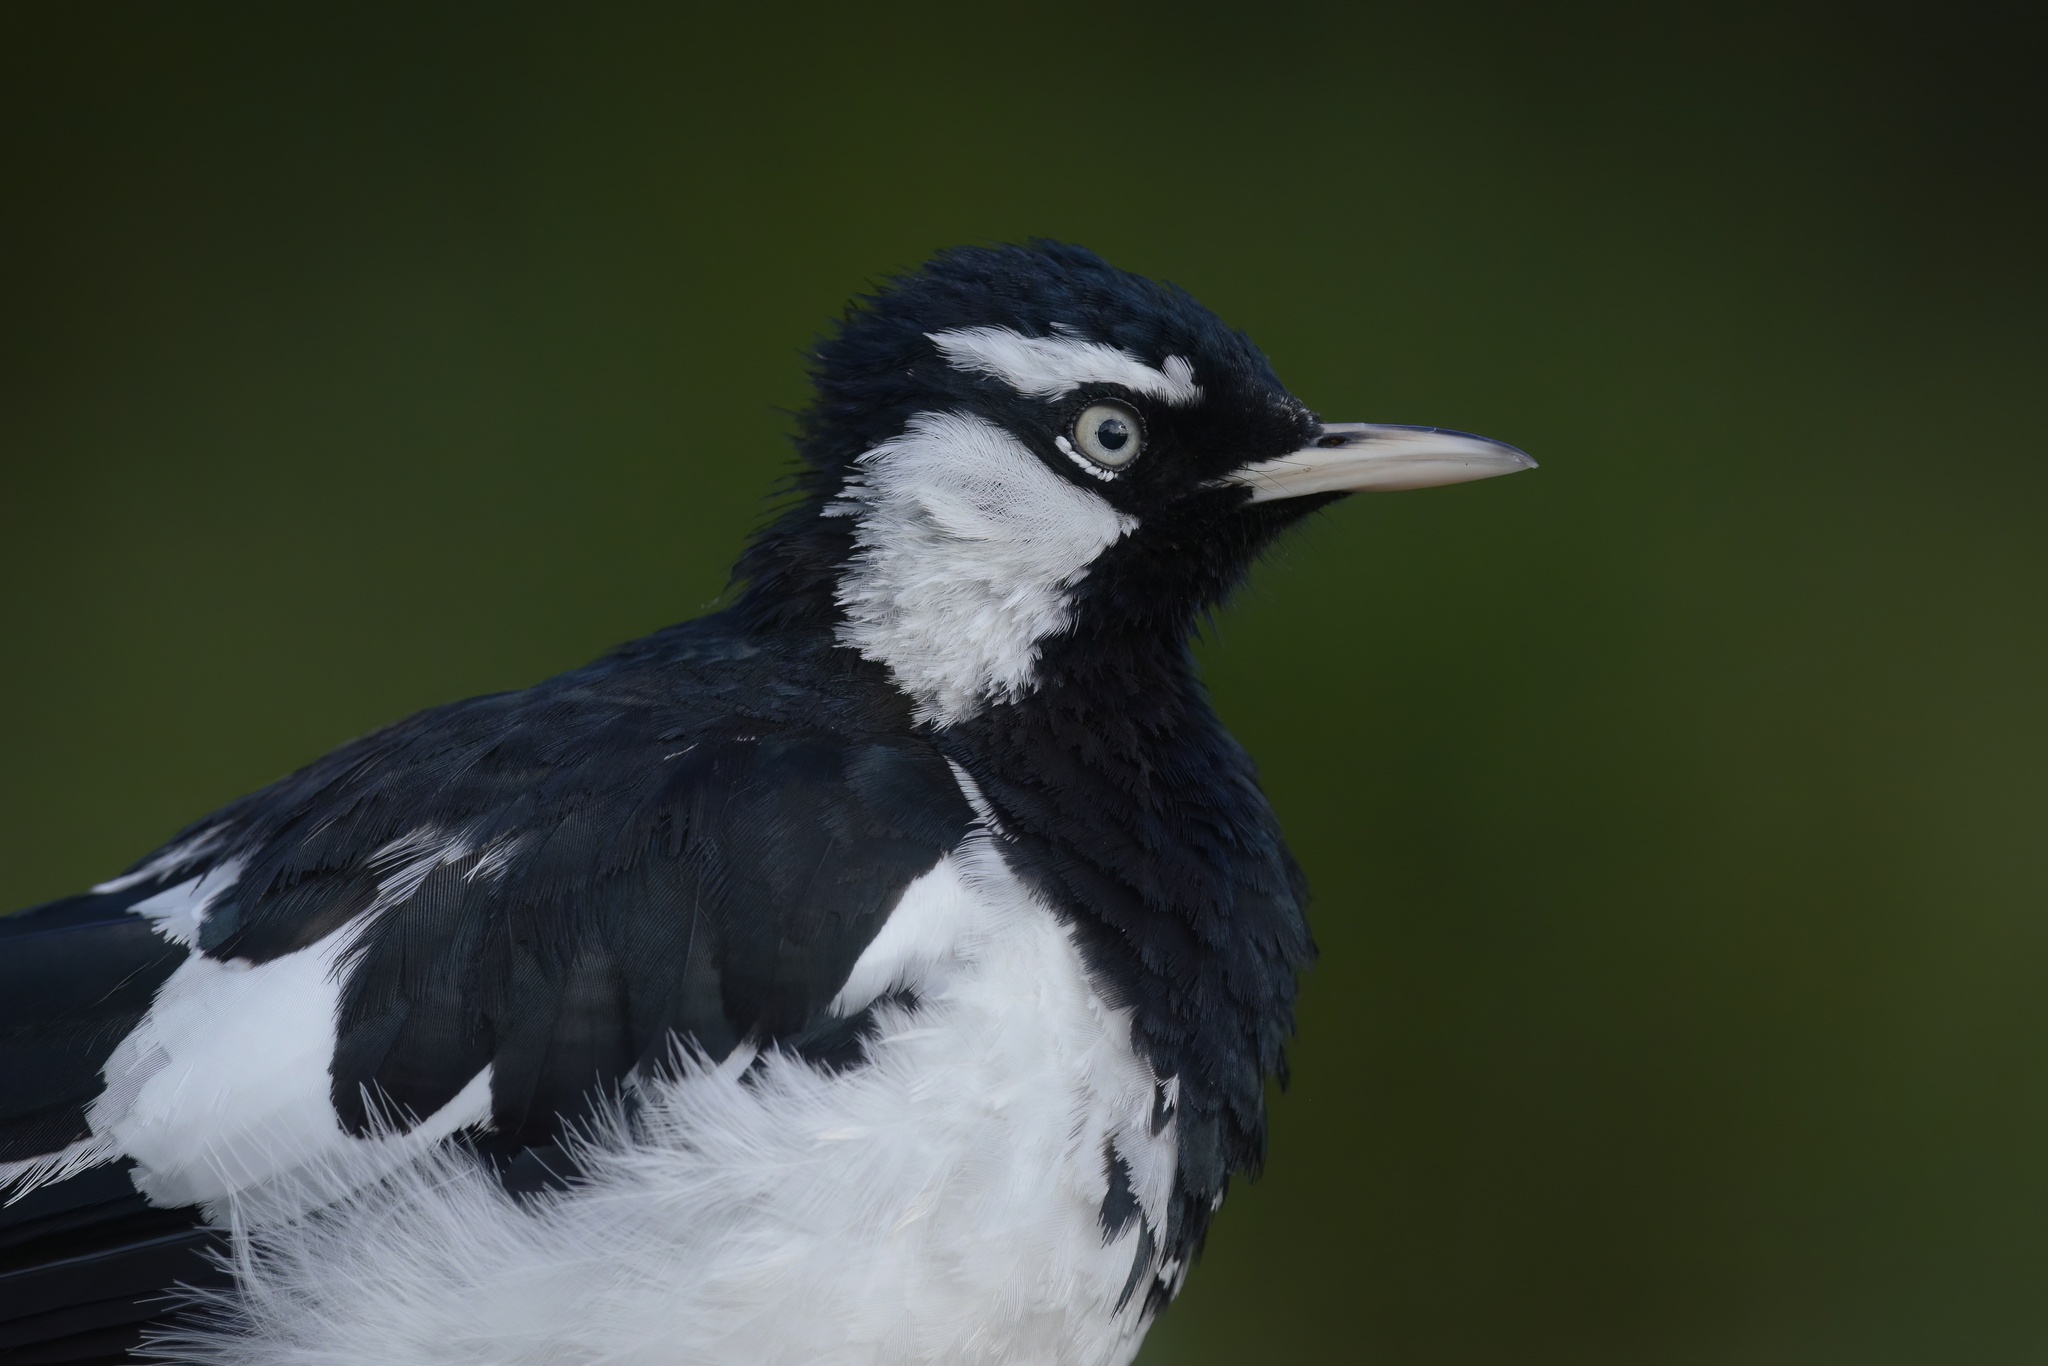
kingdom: Animalia
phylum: Chordata
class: Aves
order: Passeriformes
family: Monarchidae
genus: Grallina
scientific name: Grallina cyanoleuca
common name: Magpie-lark
